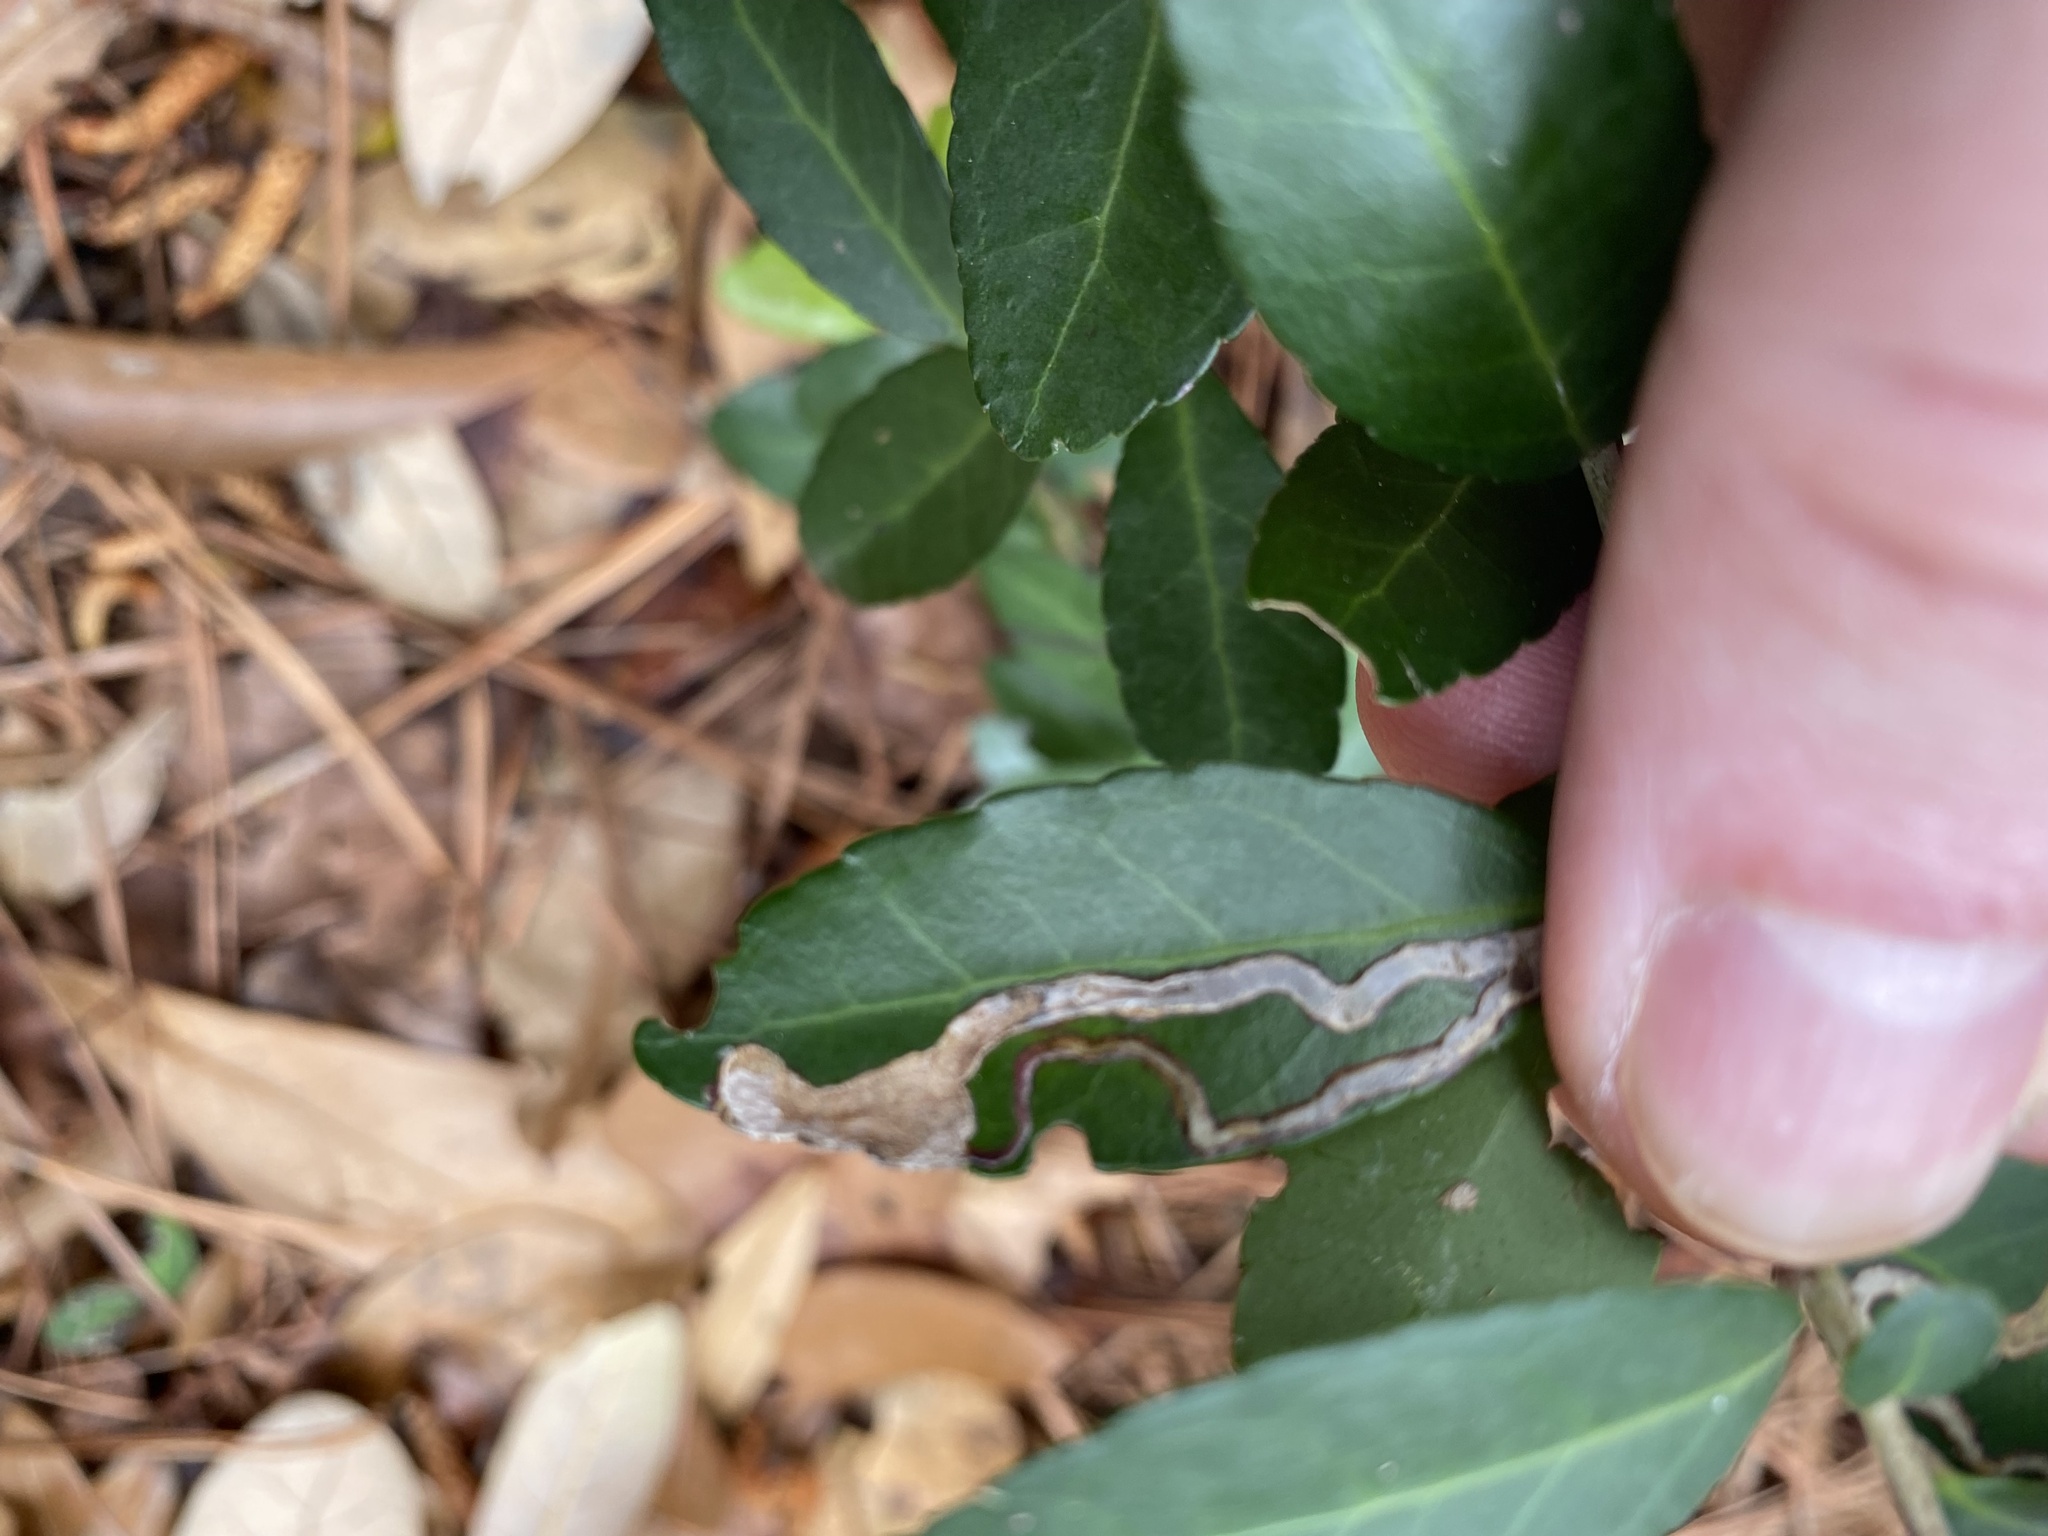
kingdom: Animalia
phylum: Arthropoda
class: Insecta
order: Diptera
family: Agromyzidae
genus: Phytomyza
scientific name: Phytomyza vomitoriae
